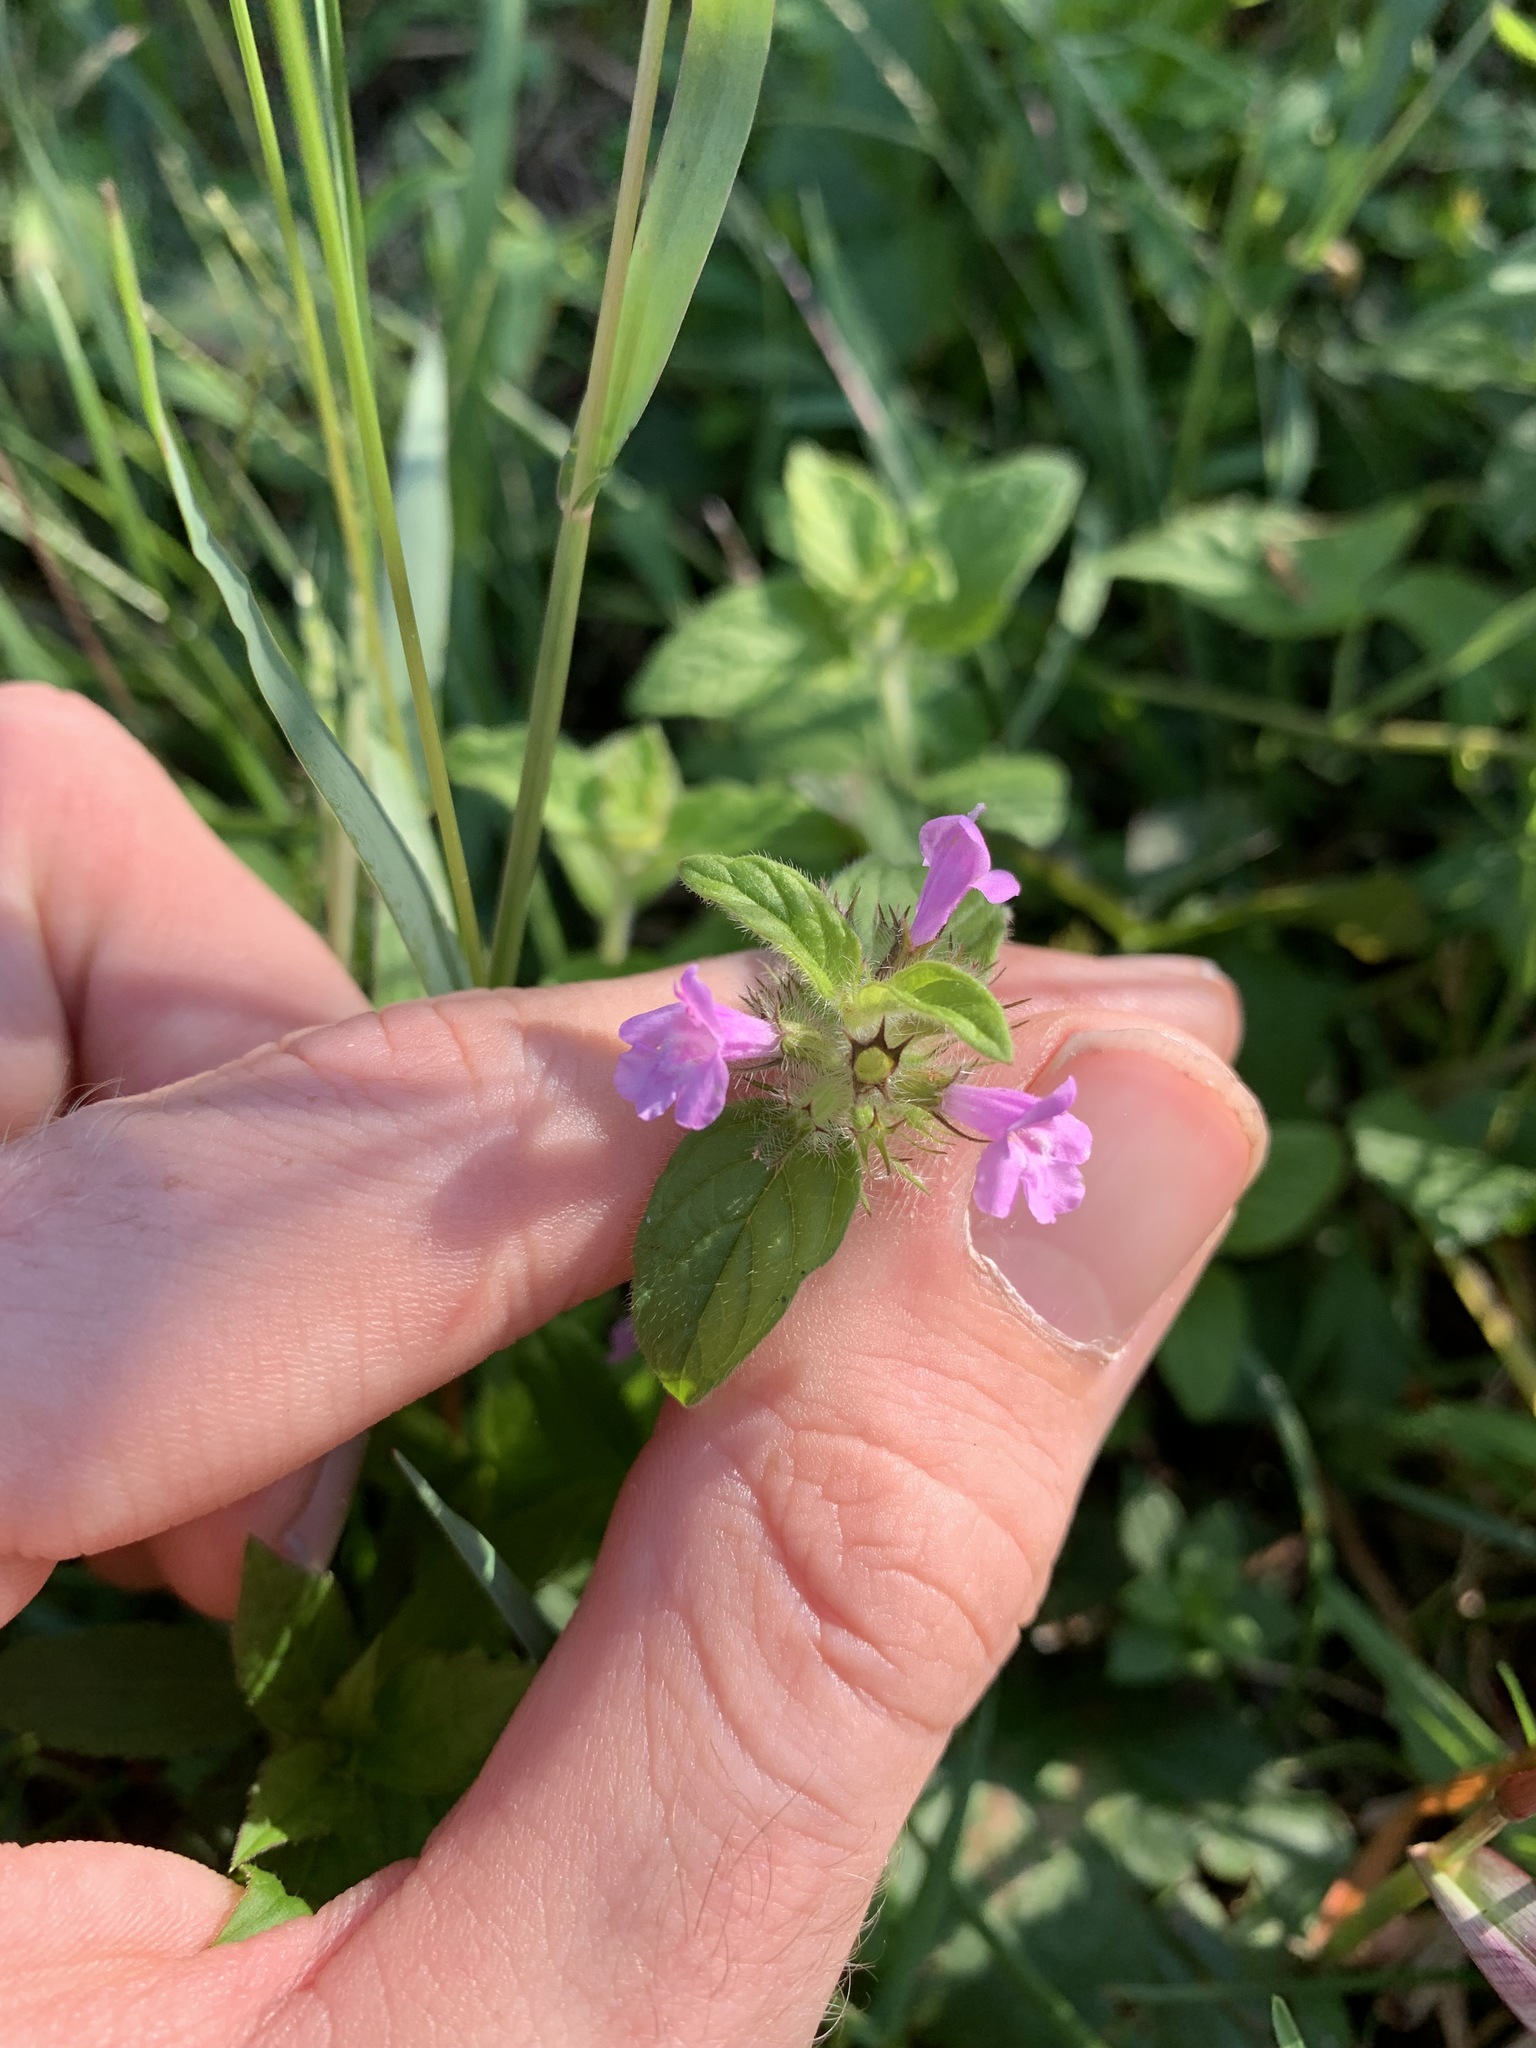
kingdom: Plantae
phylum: Tracheophyta
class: Magnoliopsida
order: Lamiales
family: Lamiaceae
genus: Clinopodium
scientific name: Clinopodium vulgare
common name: Wild basil
